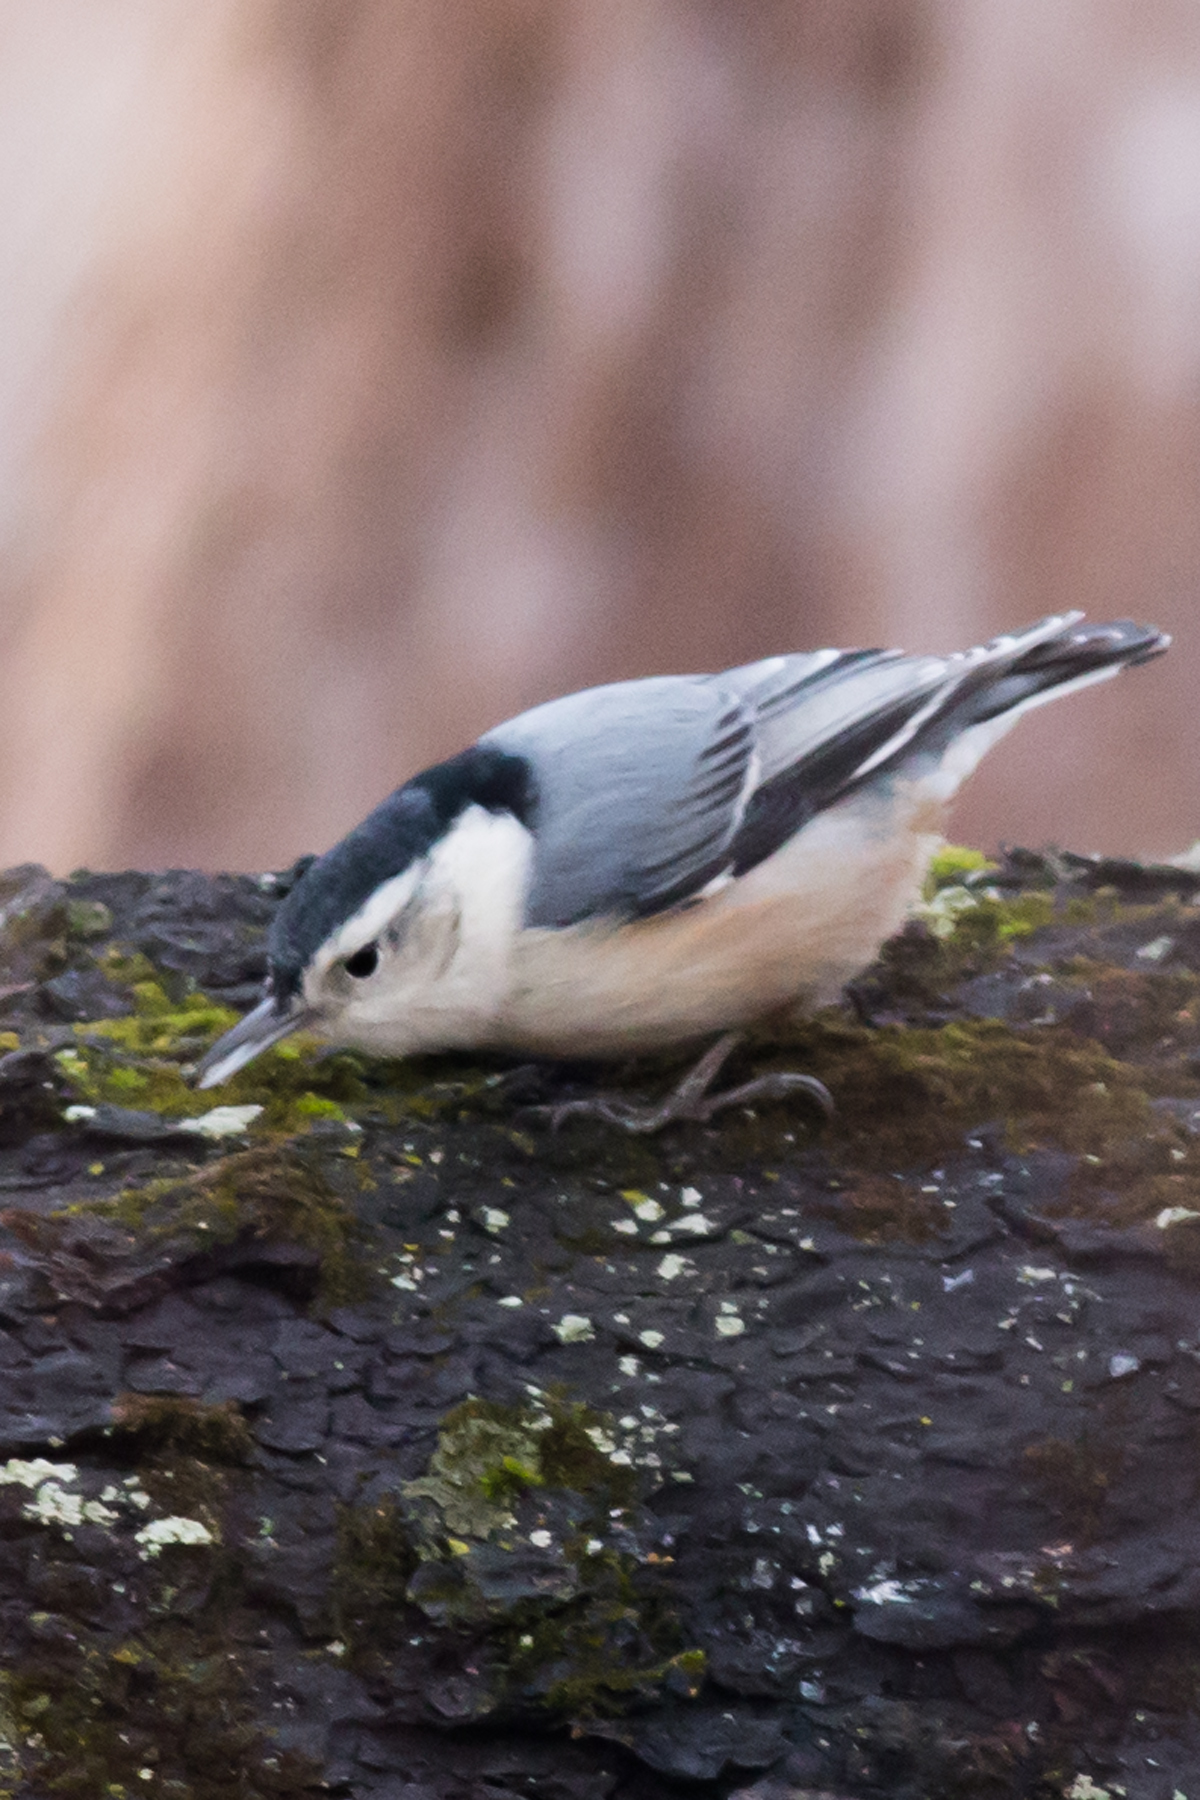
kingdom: Animalia
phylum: Chordata
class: Aves
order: Passeriformes
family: Sittidae
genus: Sitta
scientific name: Sitta carolinensis
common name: White-breasted nuthatch
